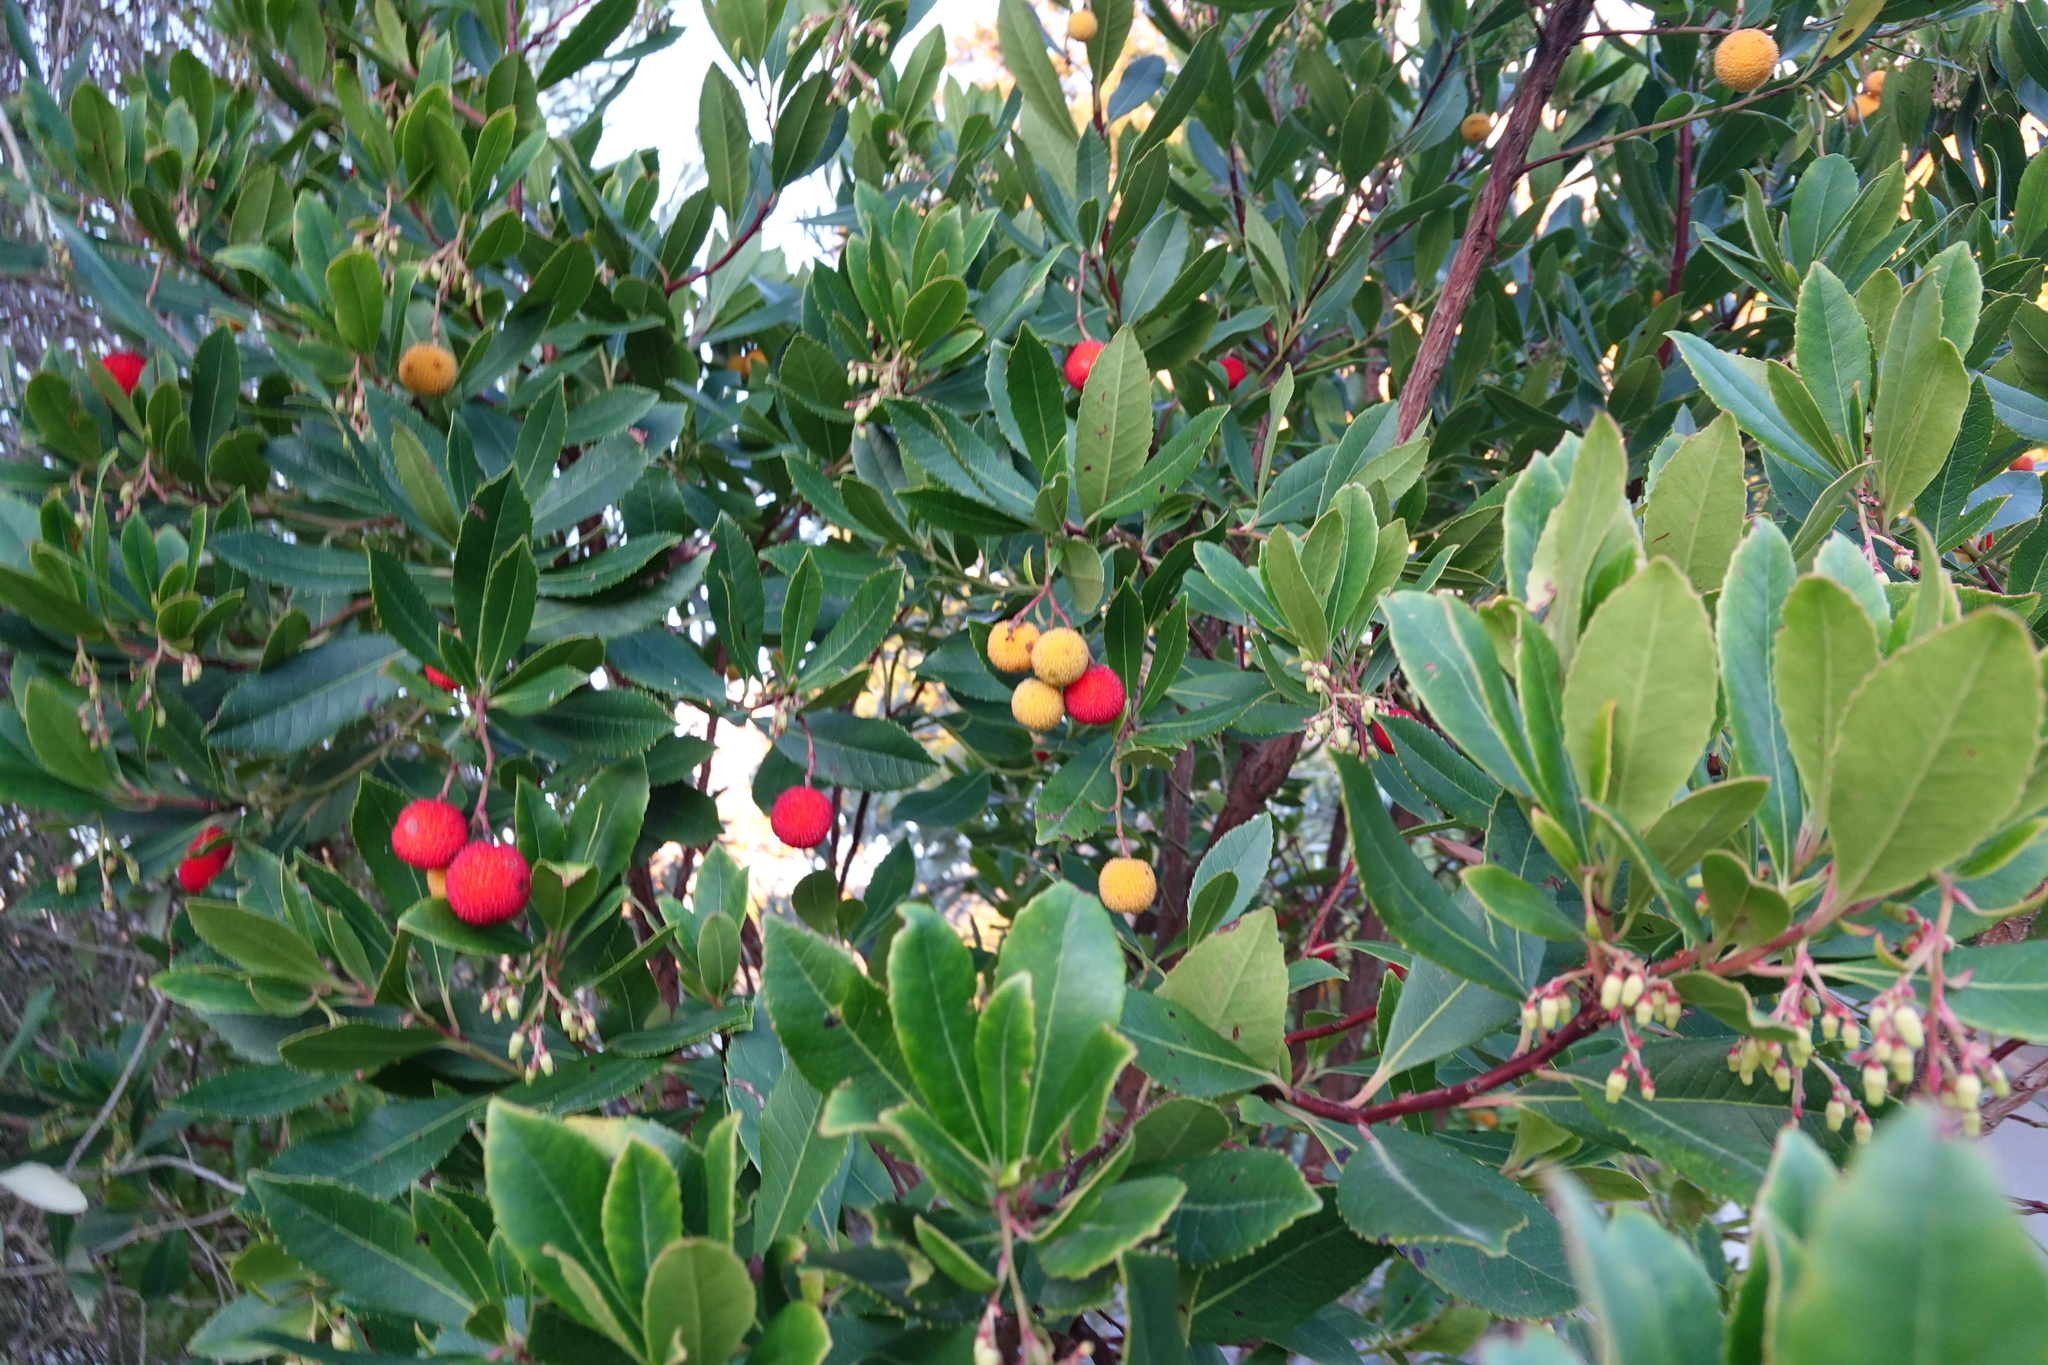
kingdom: Plantae
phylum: Tracheophyta
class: Magnoliopsida
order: Ericales
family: Ericaceae
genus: Arbutus
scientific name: Arbutus unedo
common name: Strawberry-tree
